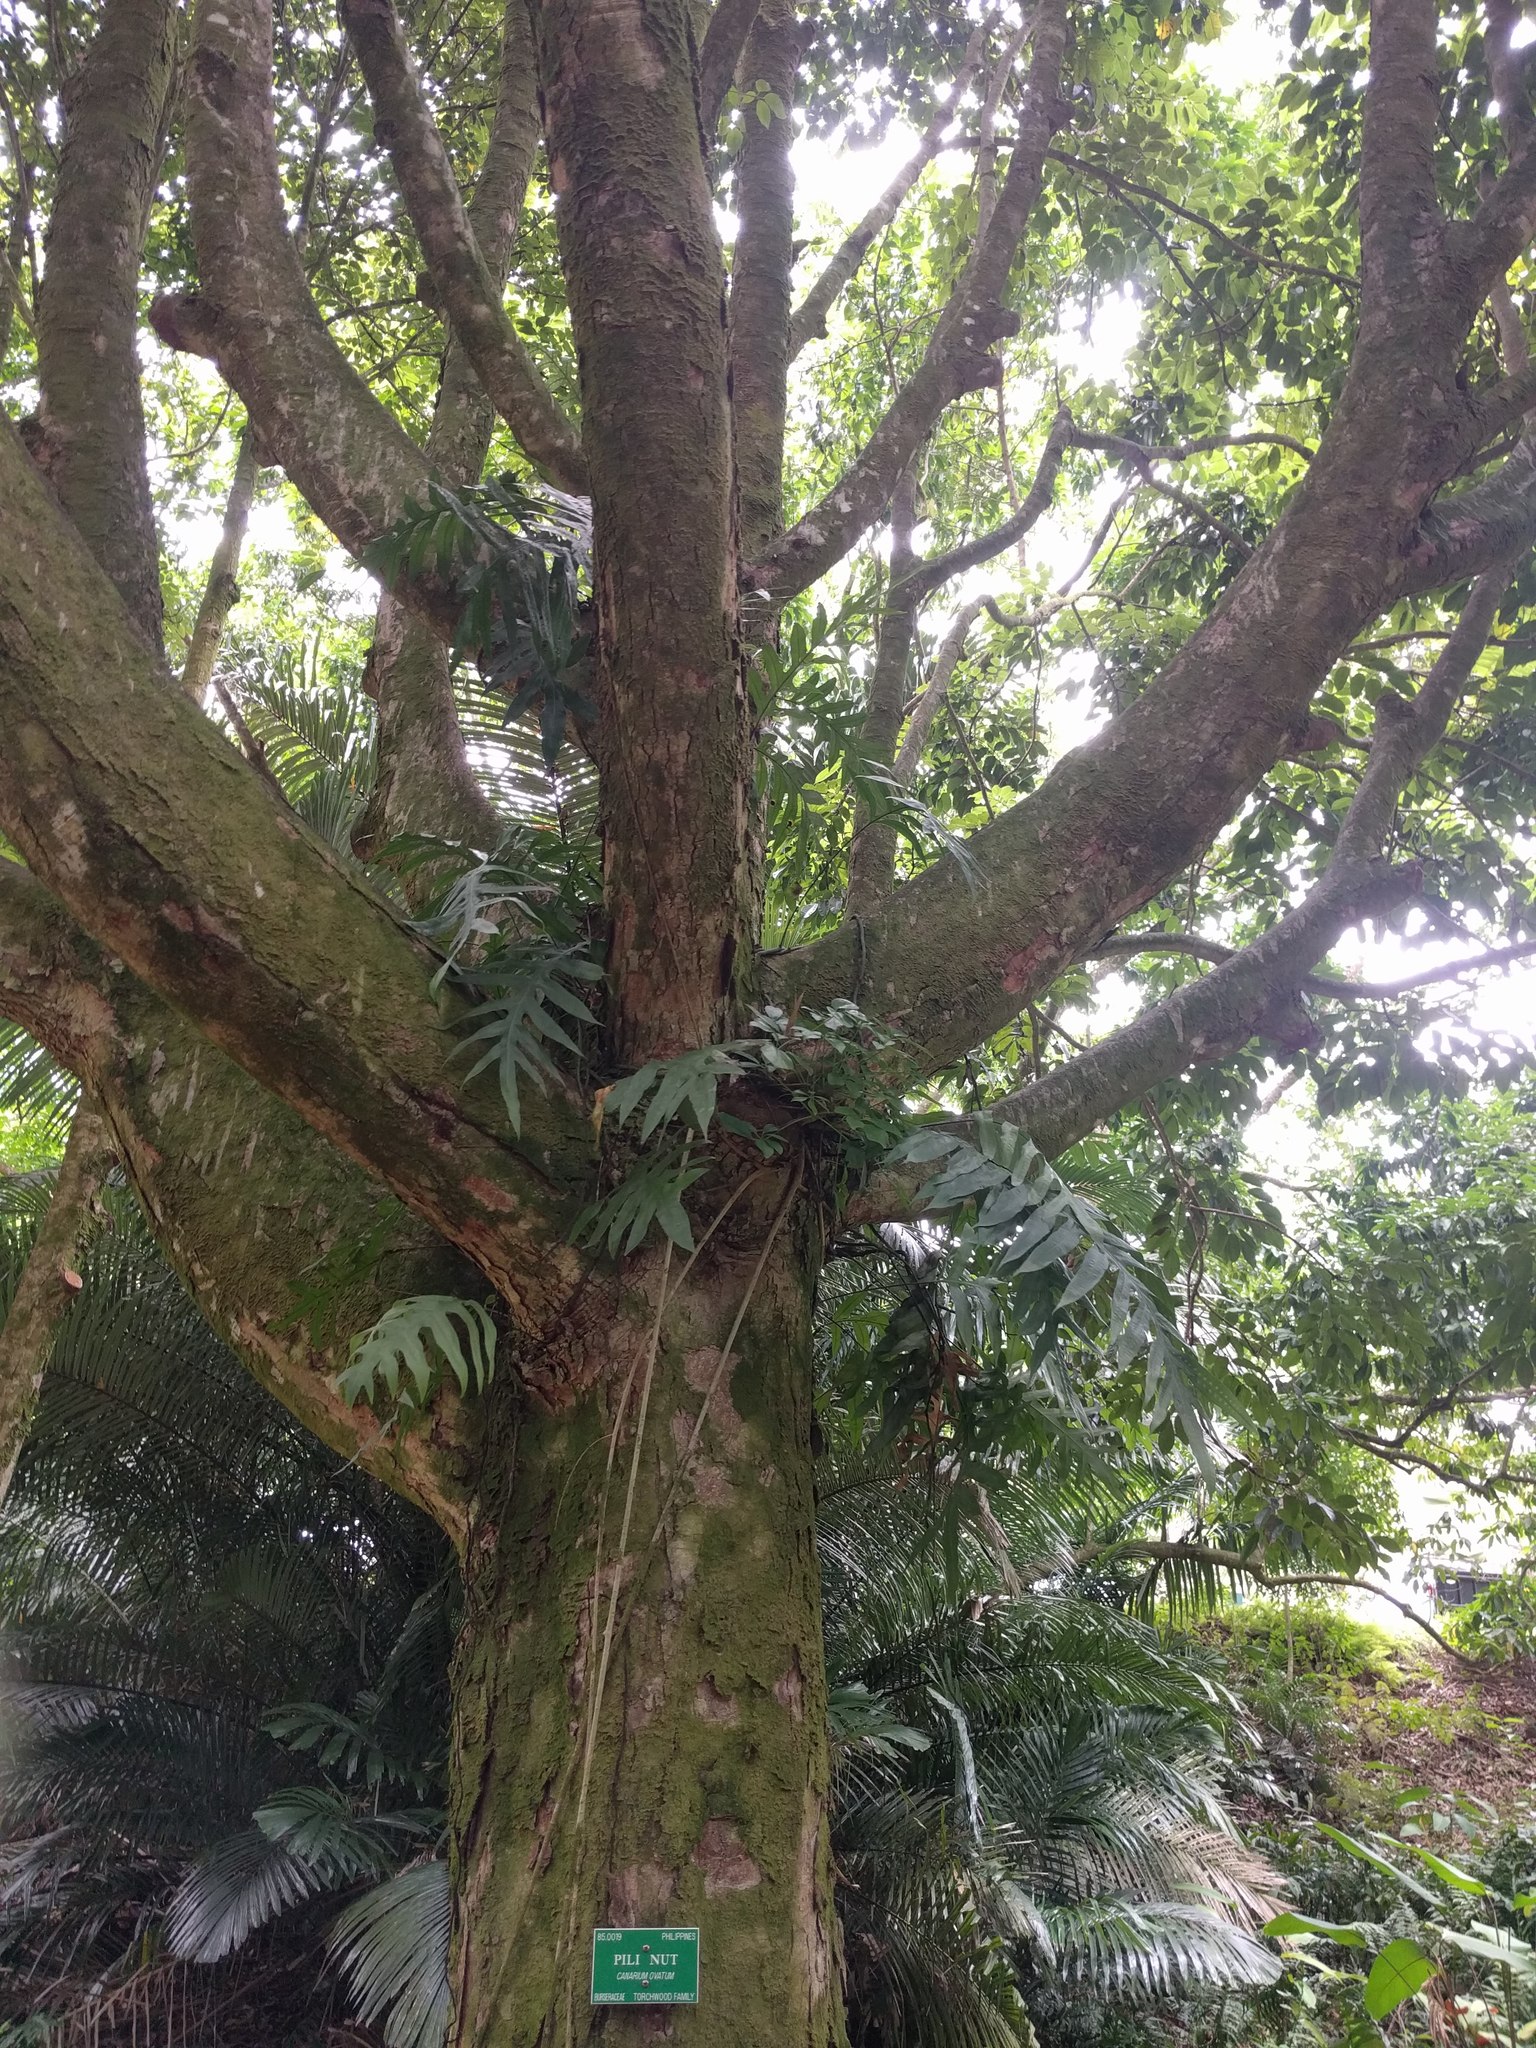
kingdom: Plantae
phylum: Tracheophyta
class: Polypodiopsida
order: Polypodiales
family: Polypodiaceae
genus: Microsorum
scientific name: Microsorum grossum
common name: Musk fern
